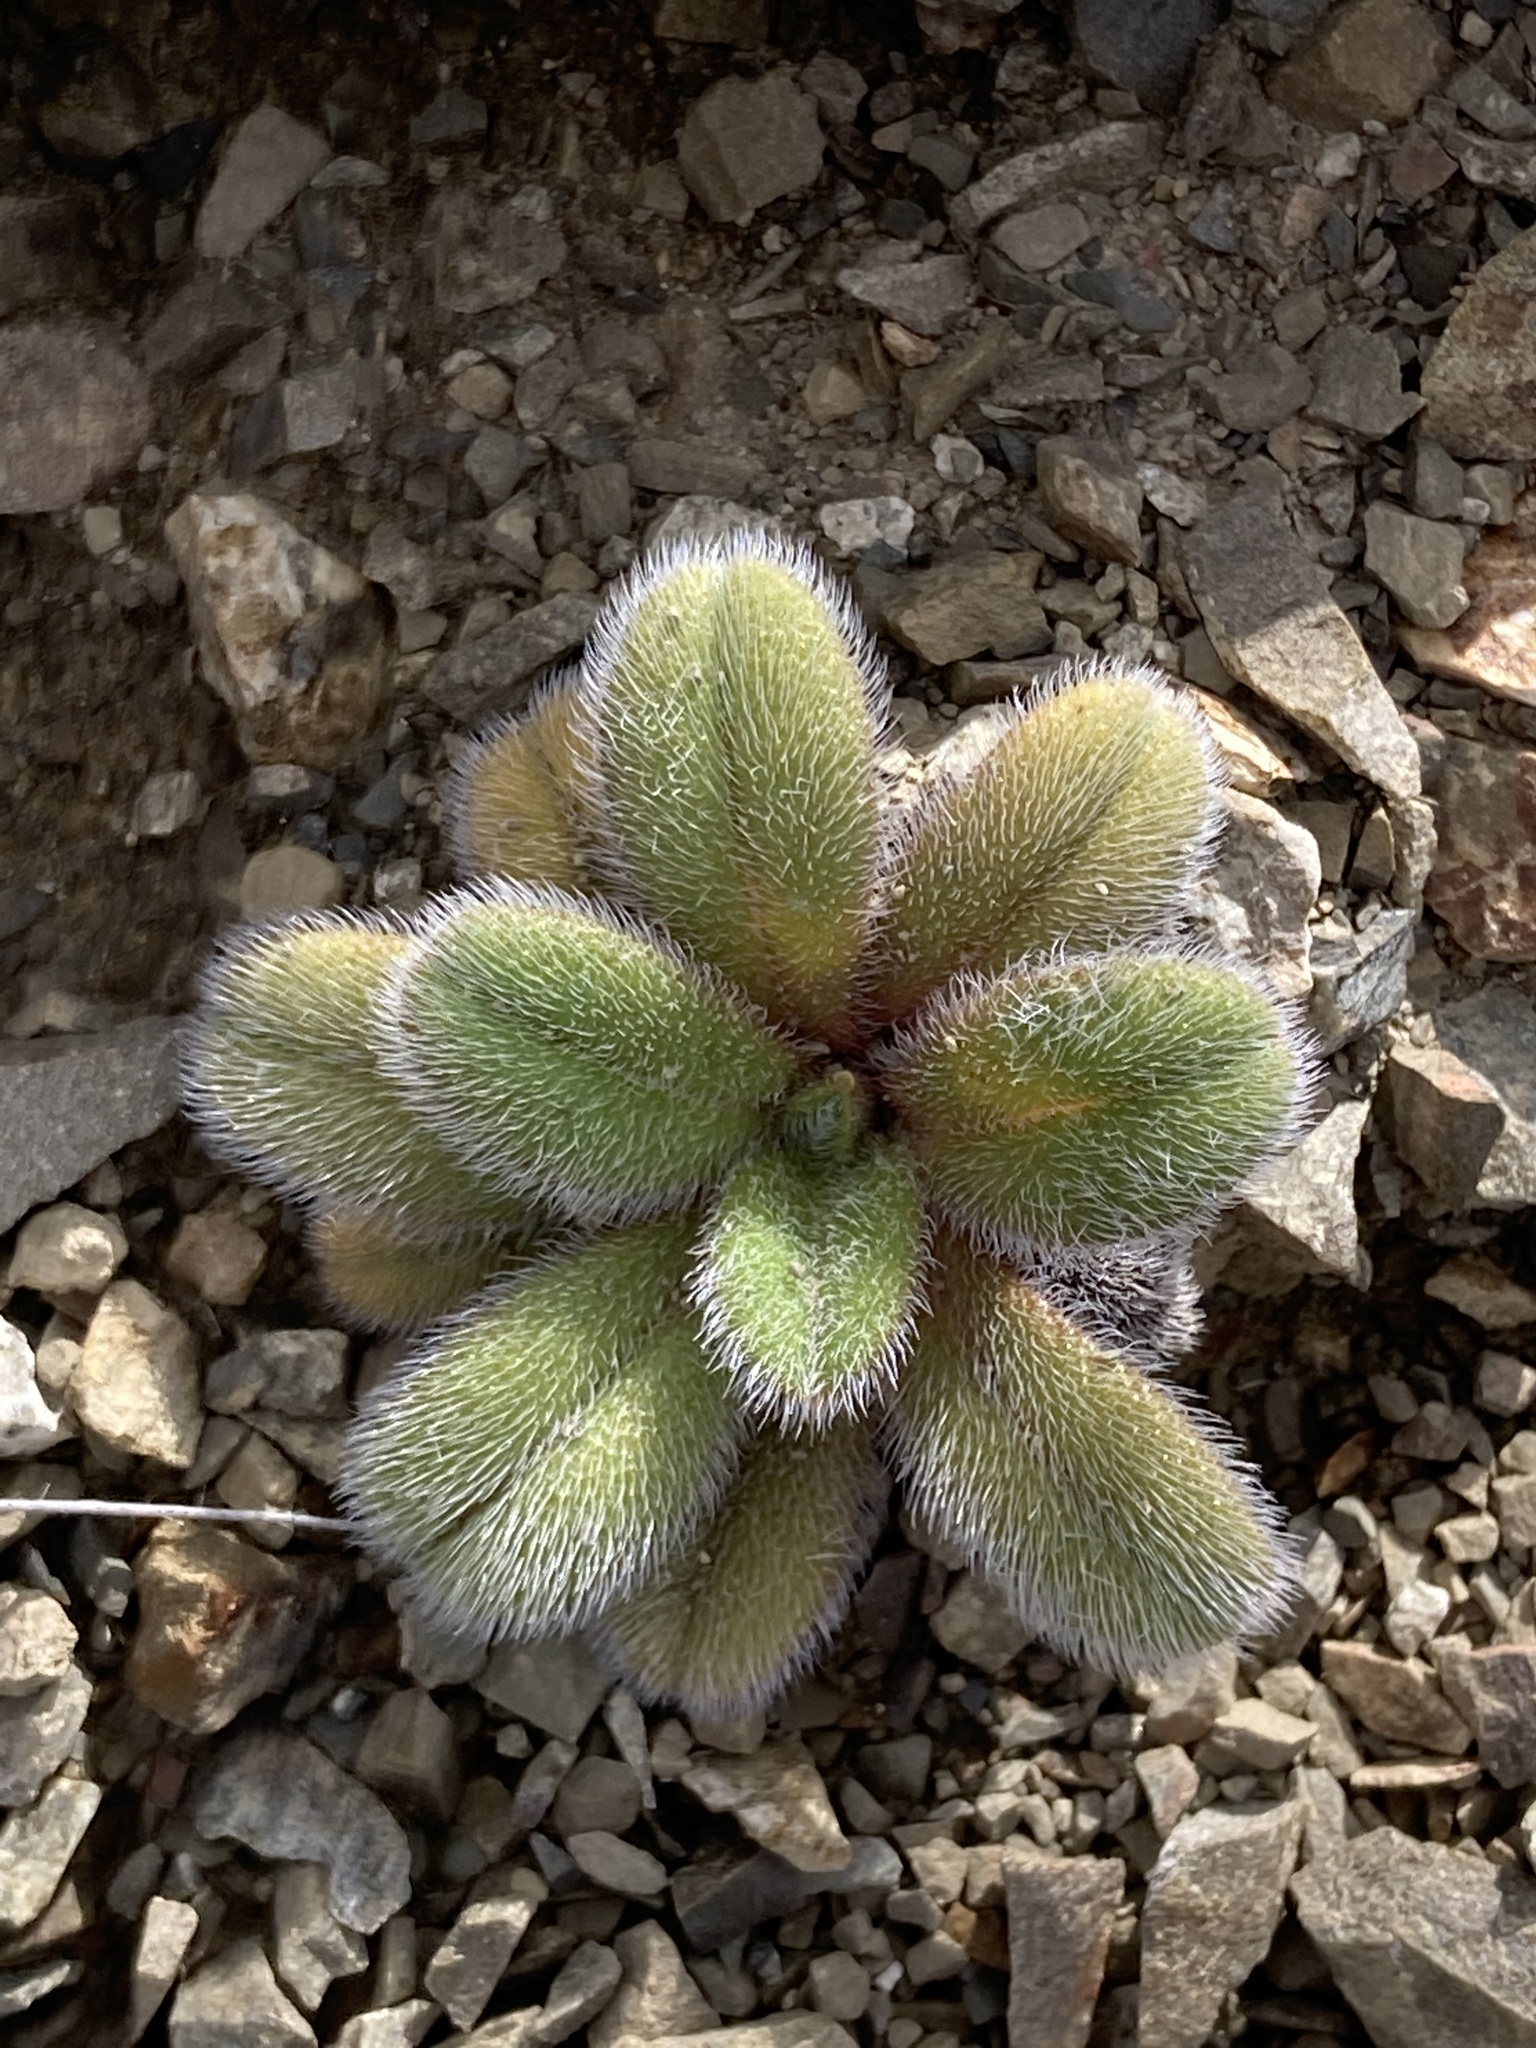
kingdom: Plantae
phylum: Tracheophyta
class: Magnoliopsida
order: Boraginales
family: Boraginaceae
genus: Myosotis
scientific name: Myosotis traversii
